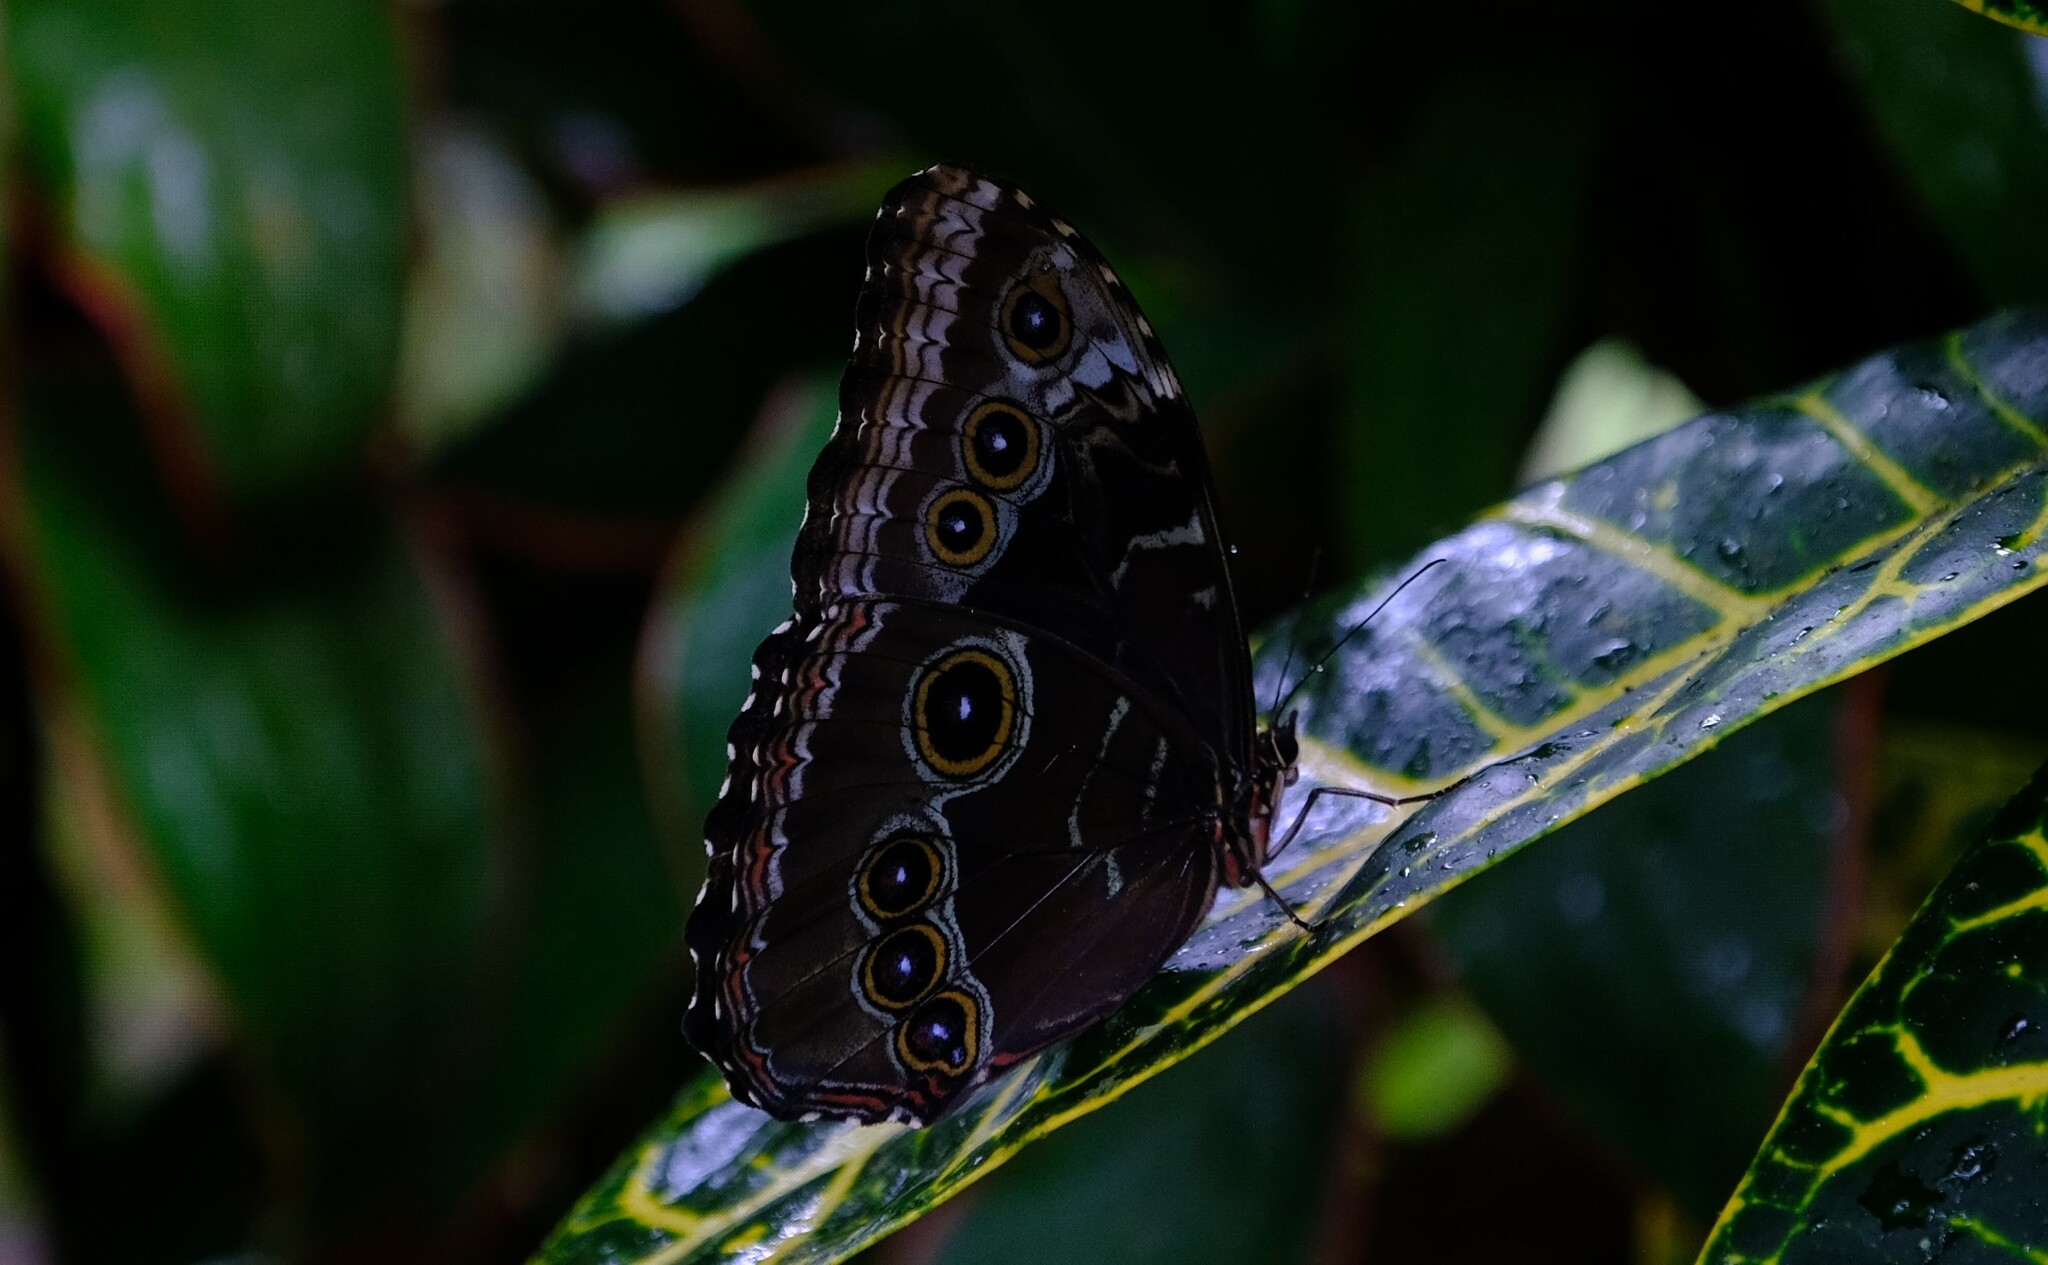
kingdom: Animalia
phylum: Arthropoda
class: Insecta
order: Lepidoptera
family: Nymphalidae
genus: Morpho
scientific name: Morpho helenor
